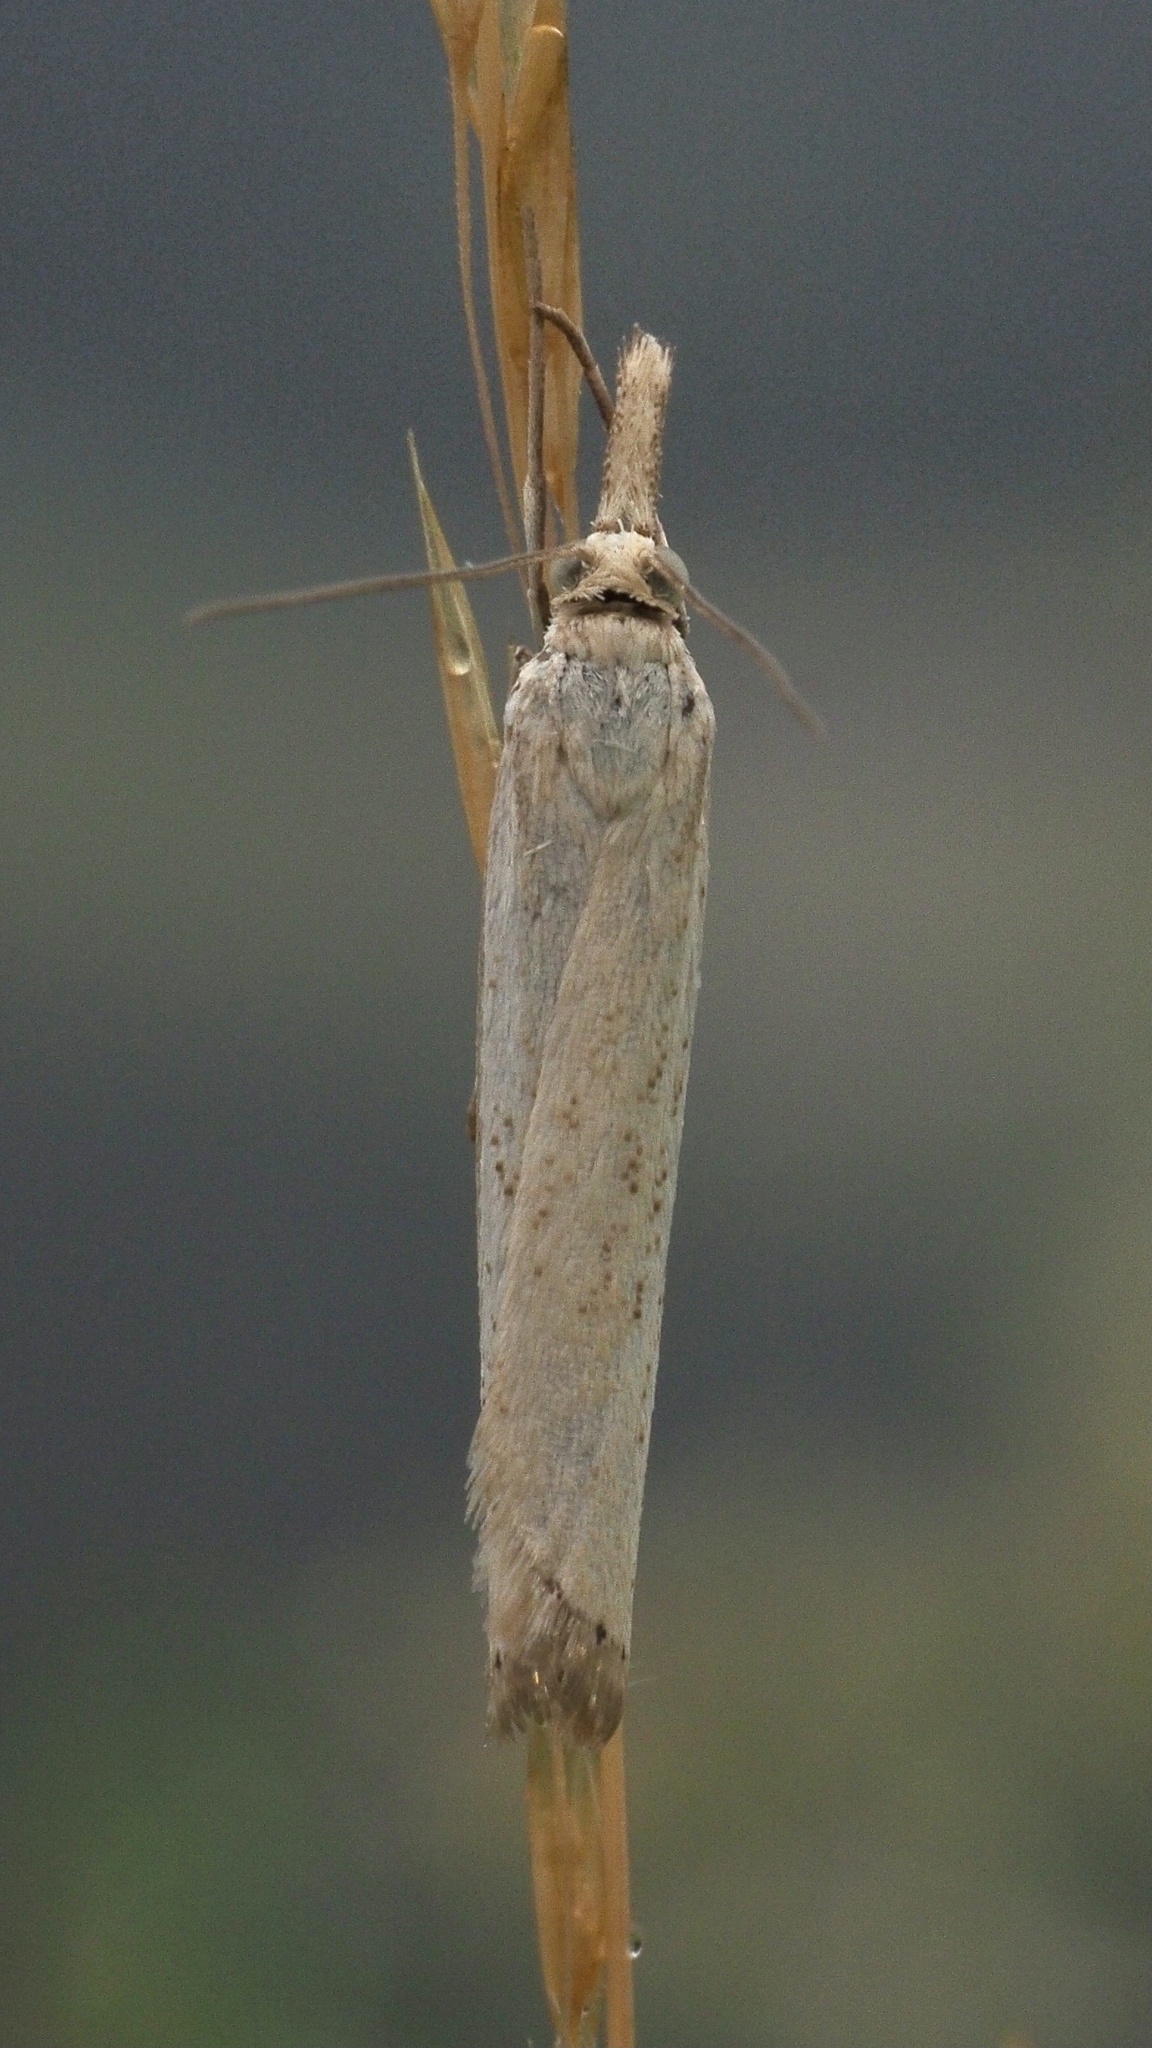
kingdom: Animalia
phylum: Arthropoda
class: Insecta
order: Lepidoptera
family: Crambidae
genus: Agriphila
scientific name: Agriphila straminella
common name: Straw grass-veneer
